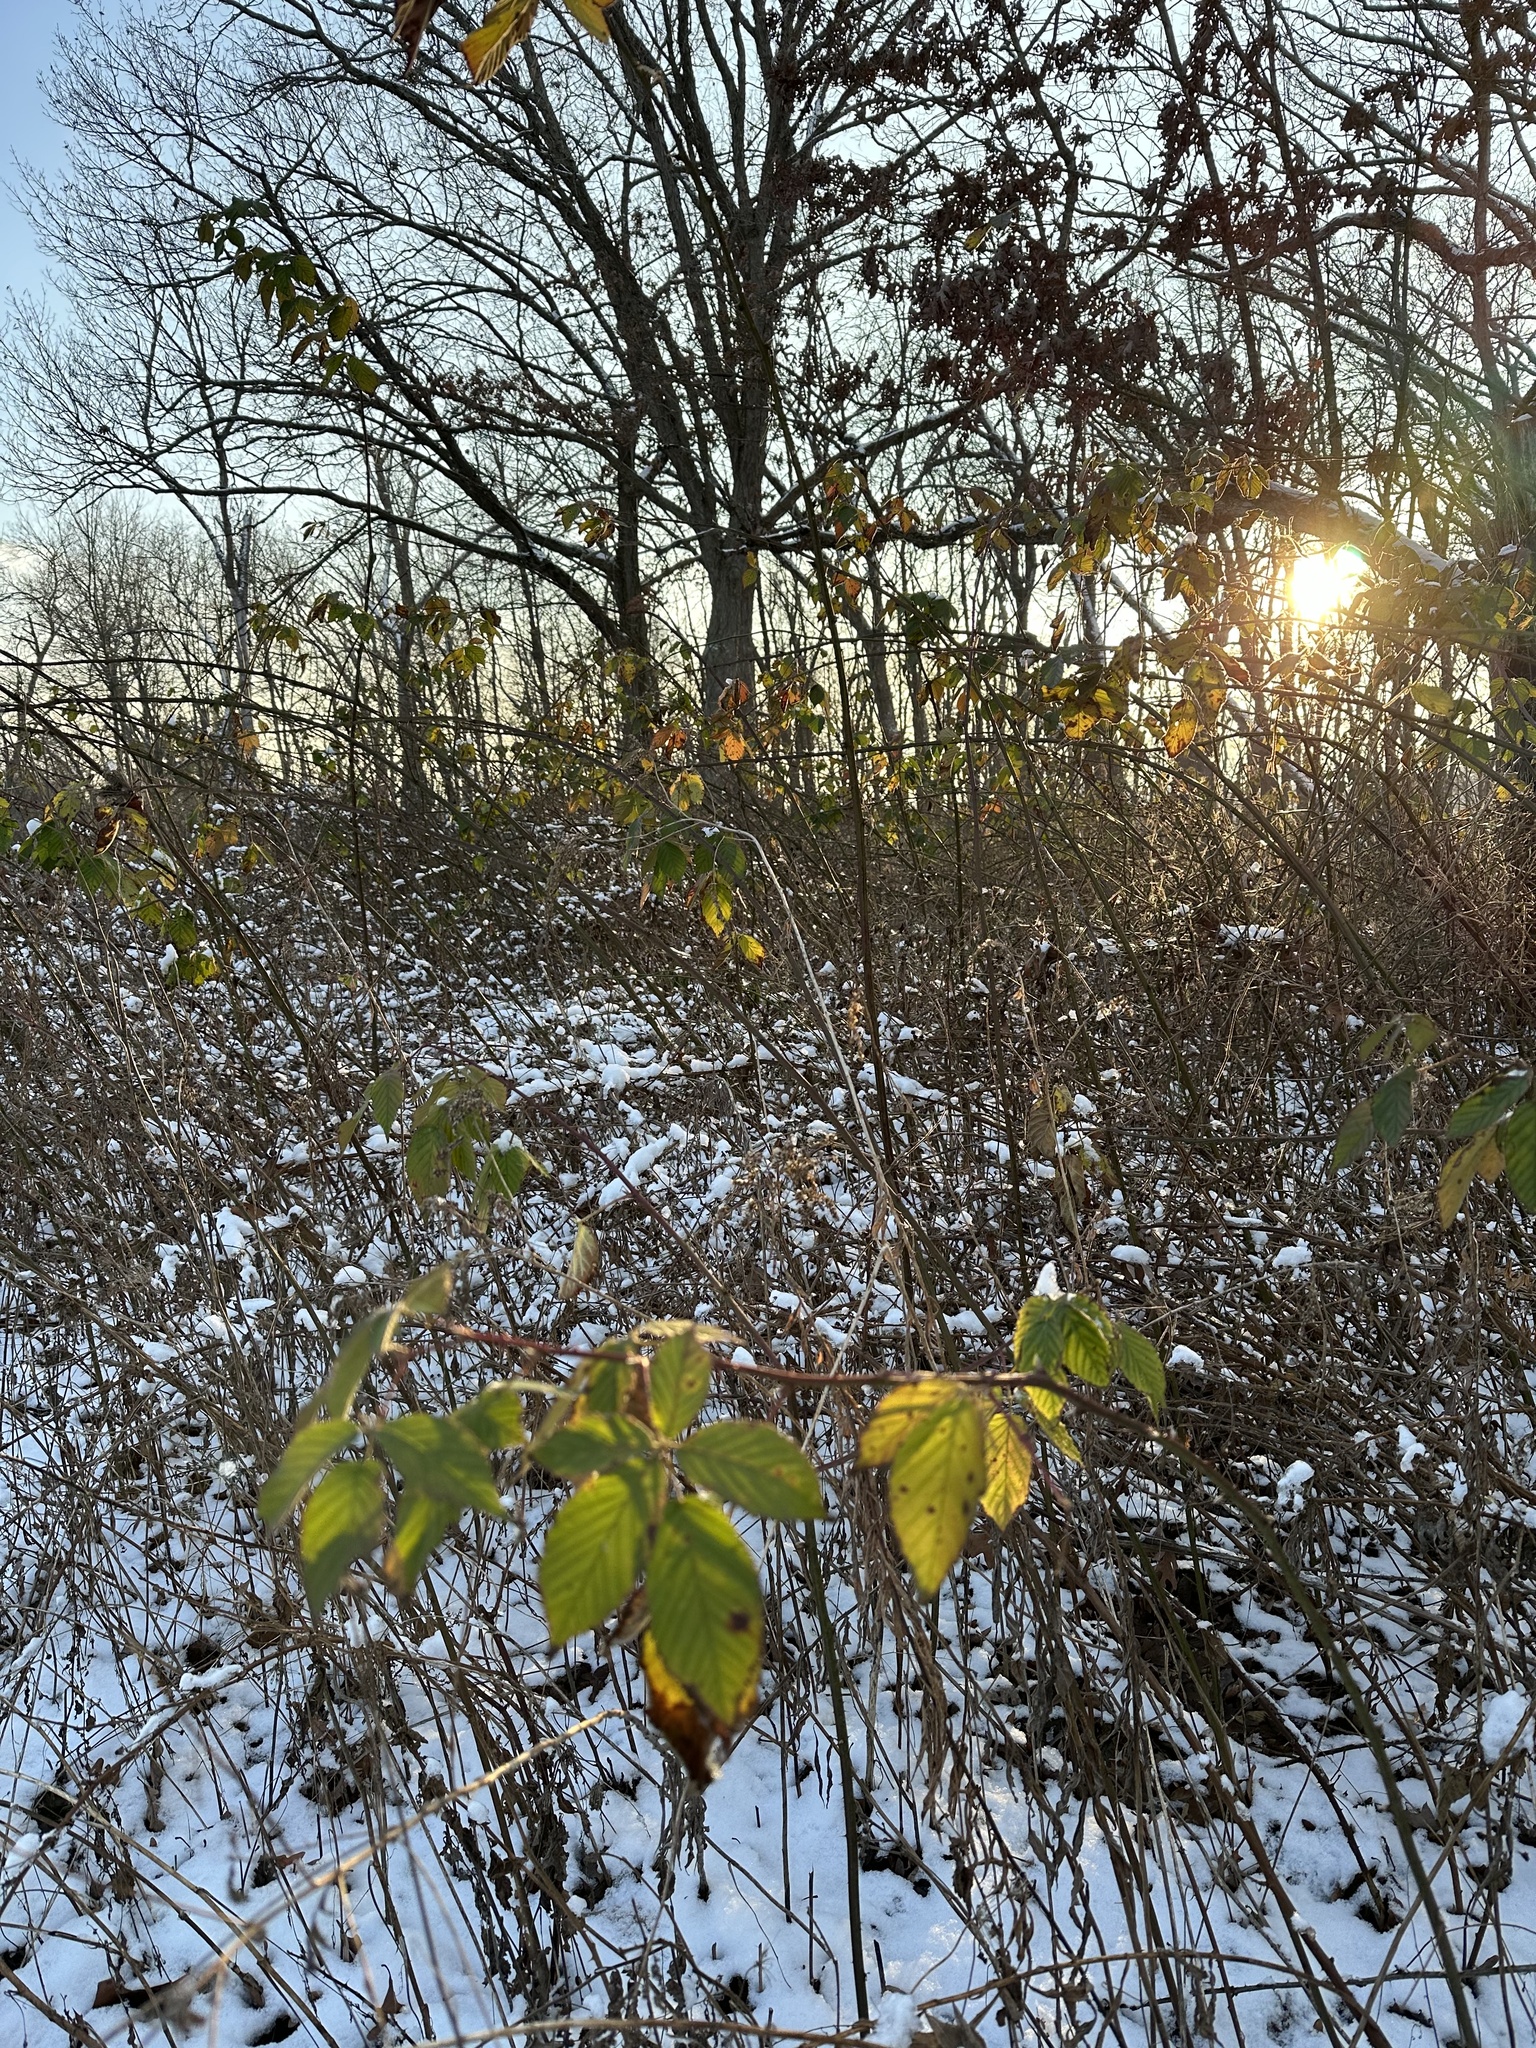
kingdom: Plantae
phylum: Tracheophyta
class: Magnoliopsida
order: Rosales
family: Rosaceae
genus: Rubus
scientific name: Rubus allegheniensis
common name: Allegheny blackberry
